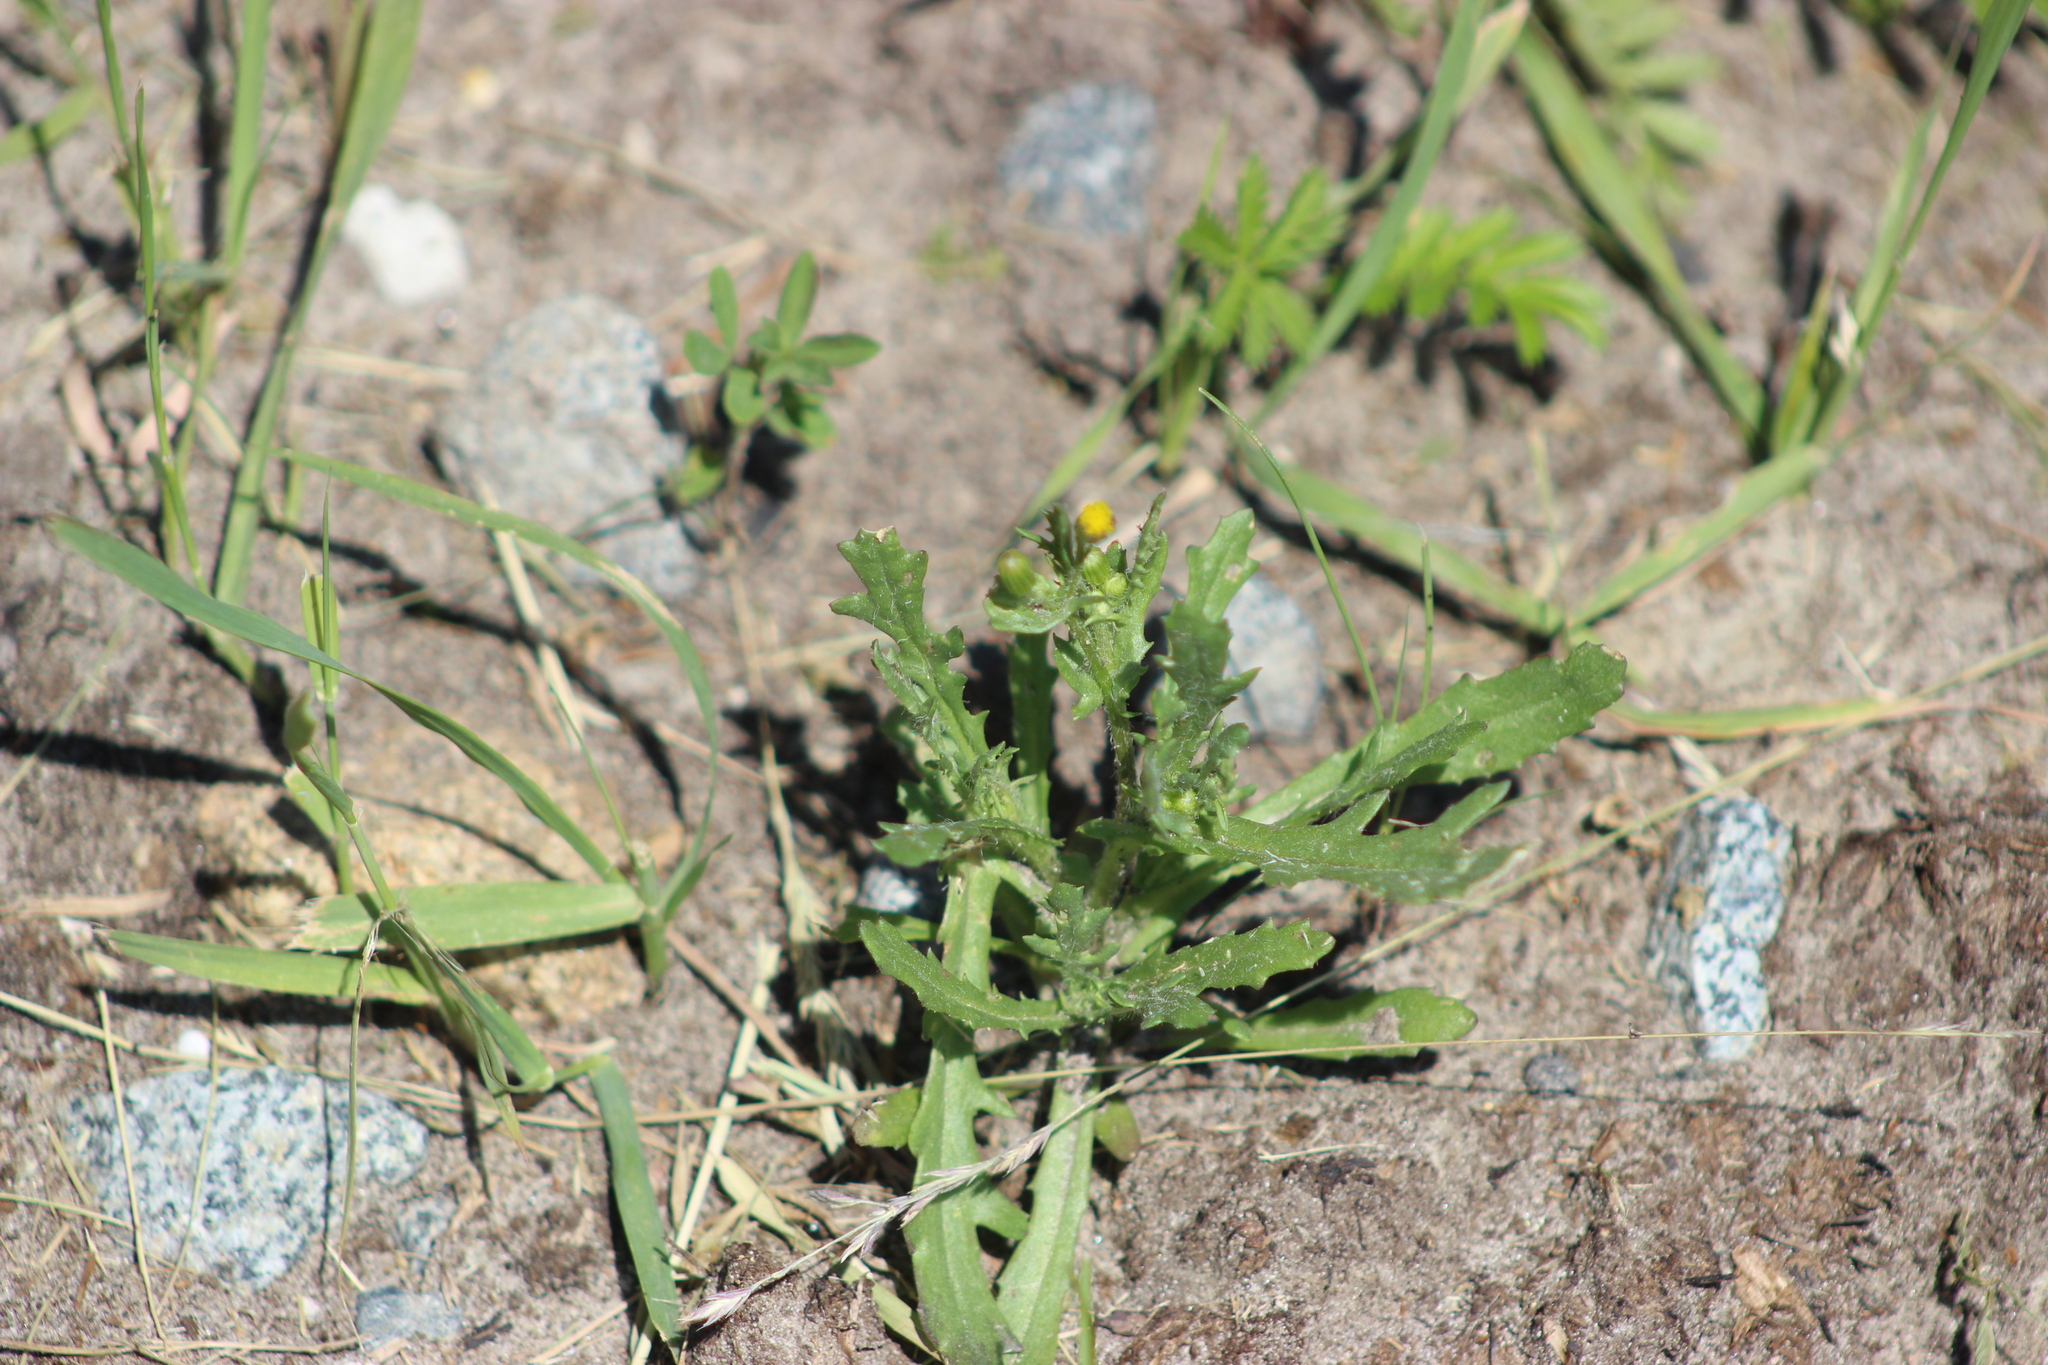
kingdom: Plantae
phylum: Tracheophyta
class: Magnoliopsida
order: Asterales
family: Asteraceae
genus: Senecio
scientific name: Senecio dubitabilis
